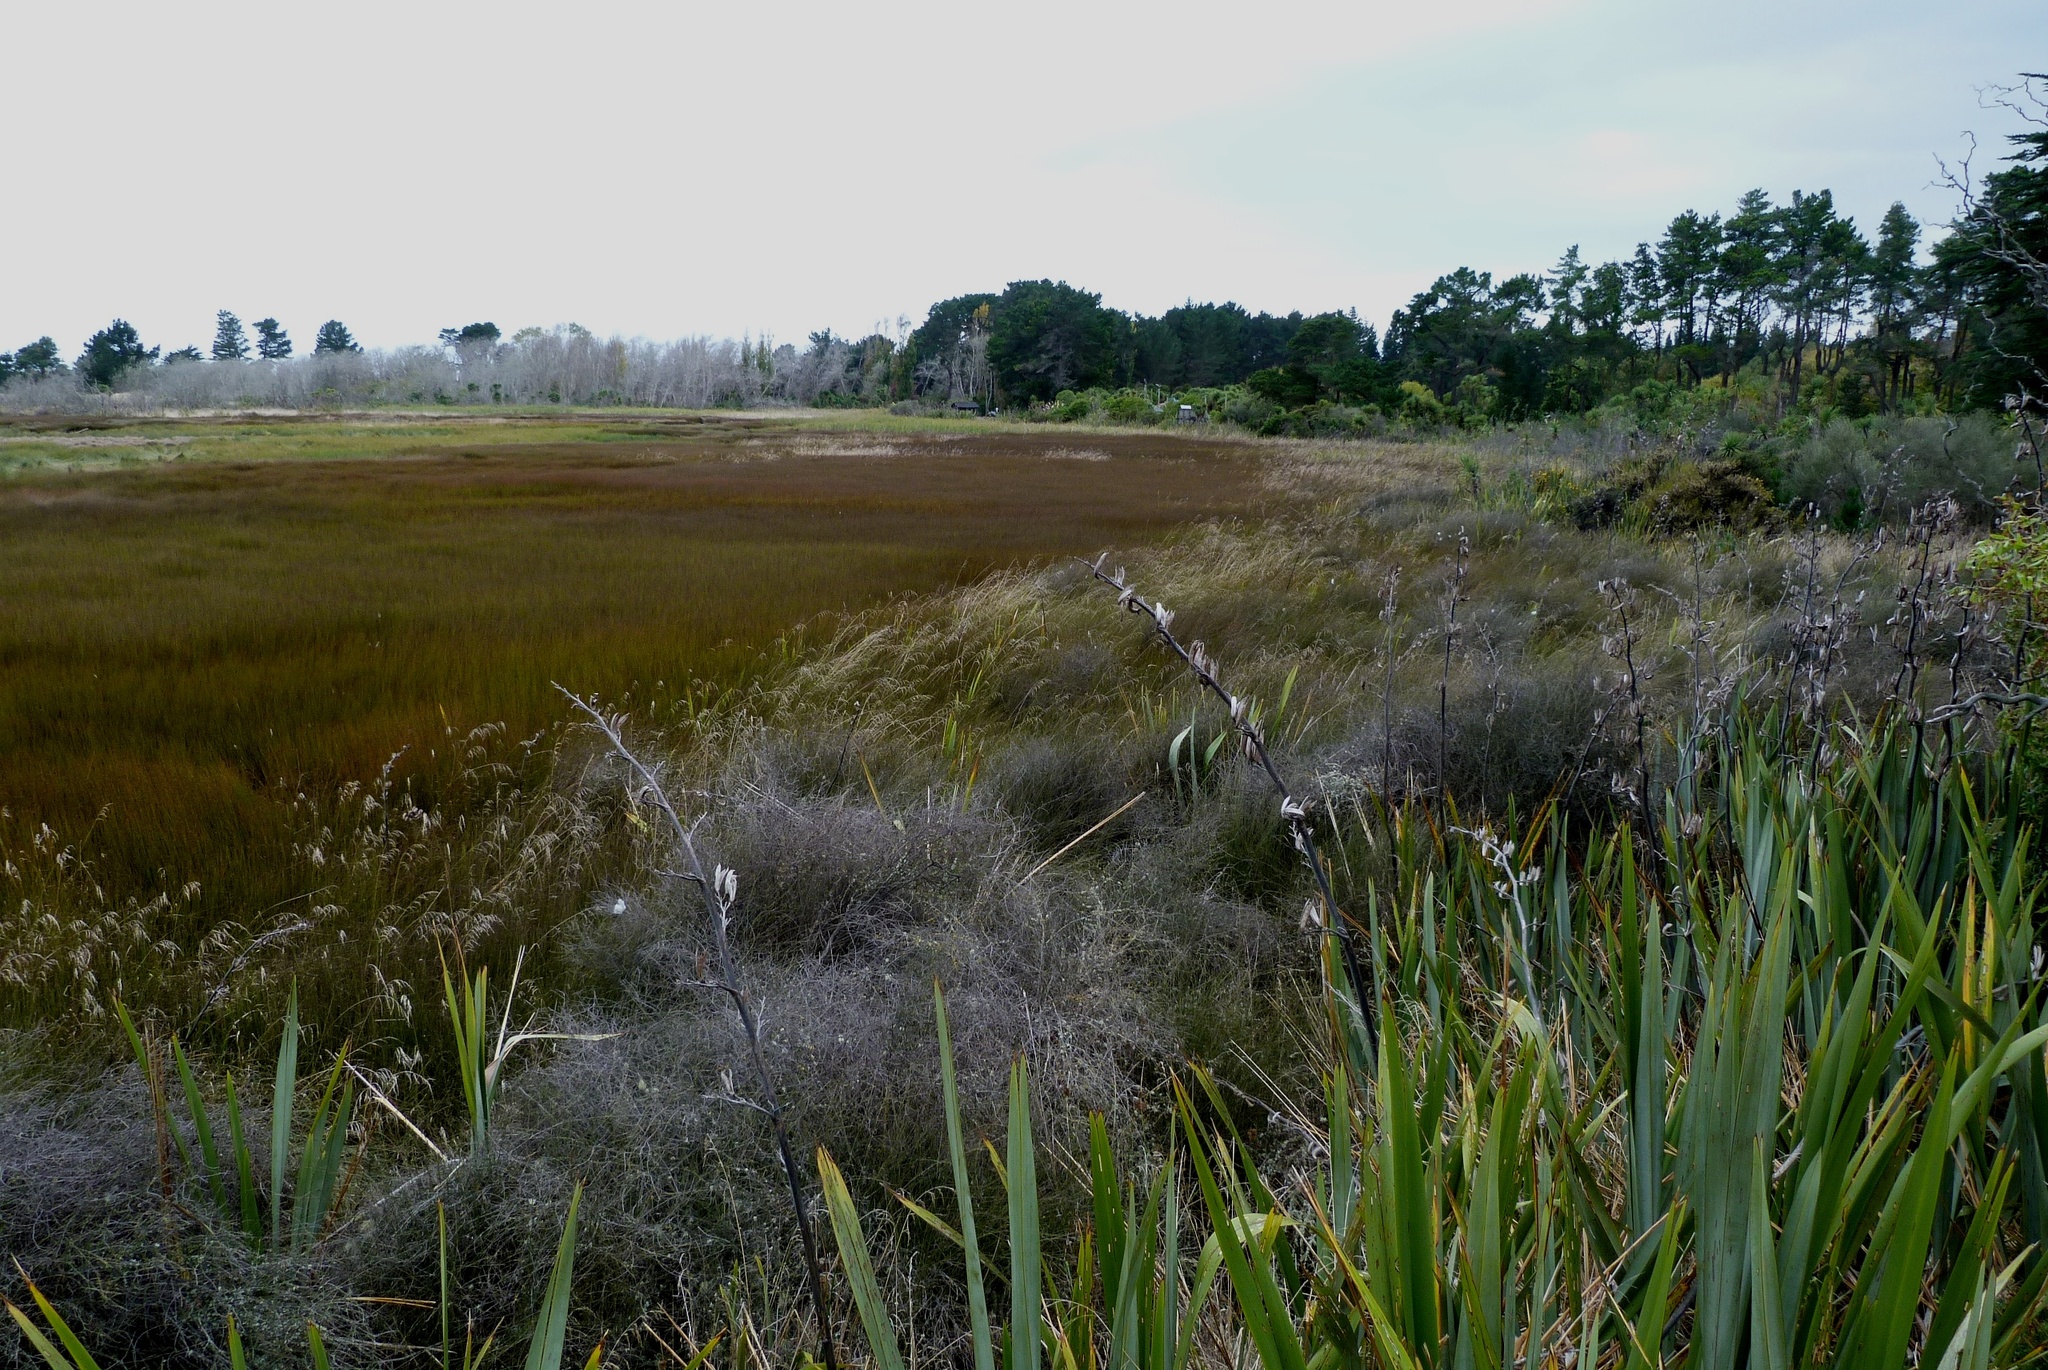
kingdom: Plantae
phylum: Tracheophyta
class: Liliopsida
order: Poales
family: Restionaceae
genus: Apodasmia
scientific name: Apodasmia similis
